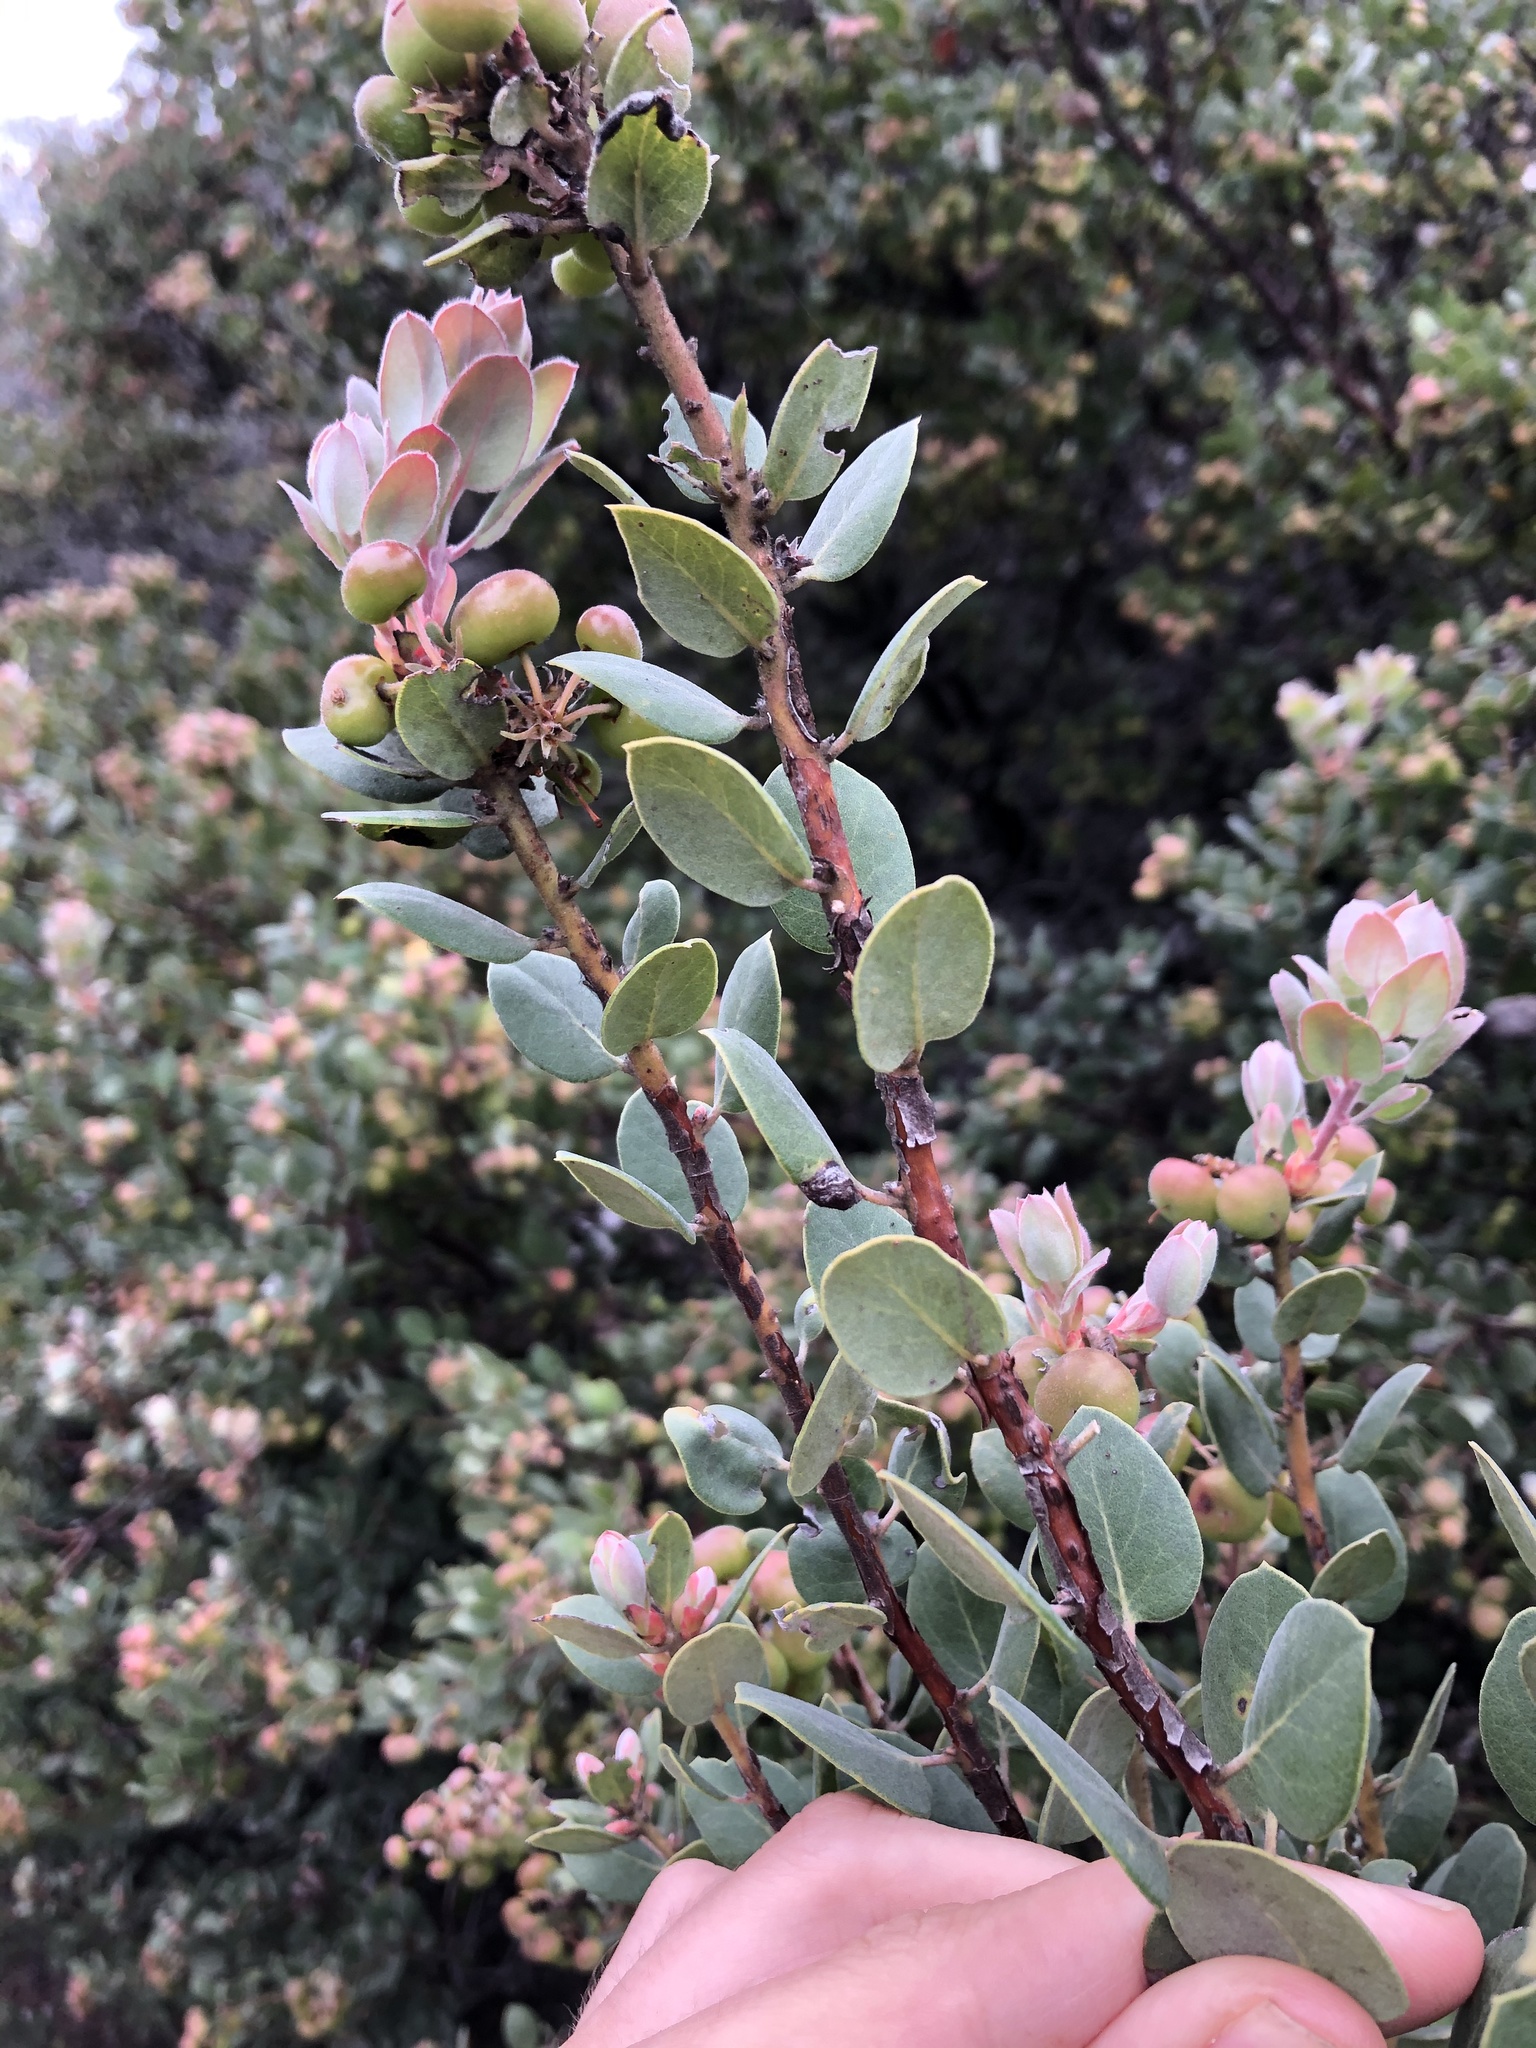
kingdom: Plantae
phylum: Tracheophyta
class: Magnoliopsida
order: Ericales
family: Ericaceae
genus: Arctostaphylos
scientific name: Arctostaphylos morroensis
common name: Morro manzanita
